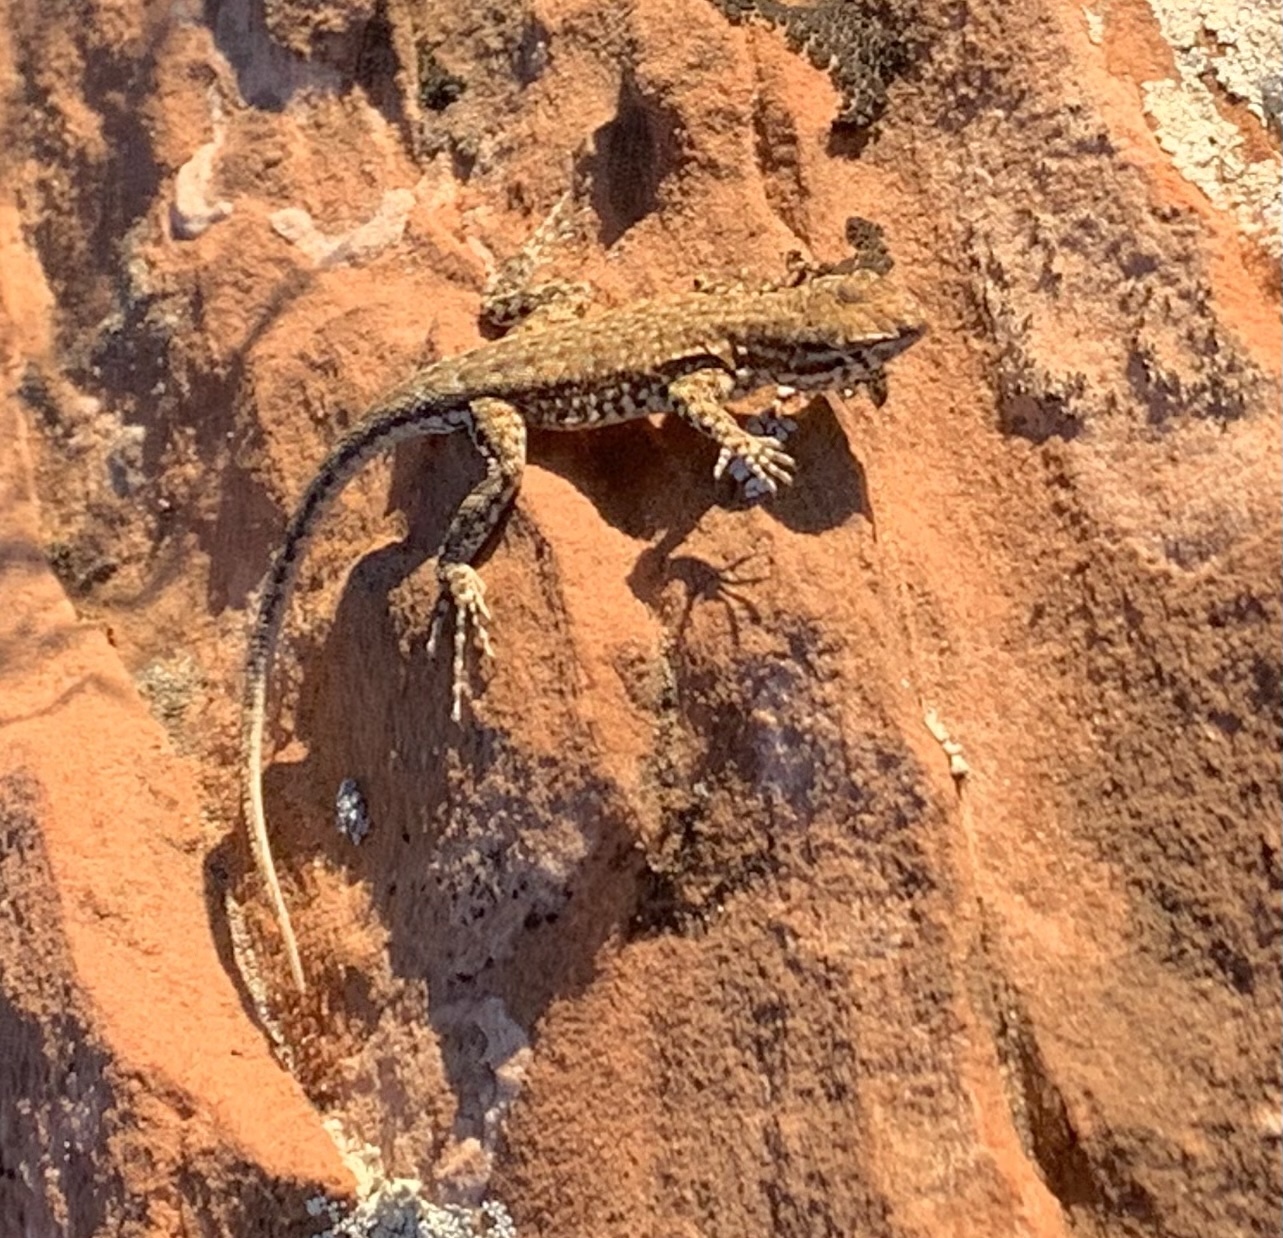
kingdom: Animalia
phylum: Chordata
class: Squamata
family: Phrynosomatidae
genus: Uta
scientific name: Uta stansburiana
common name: Side-blotched lizard
